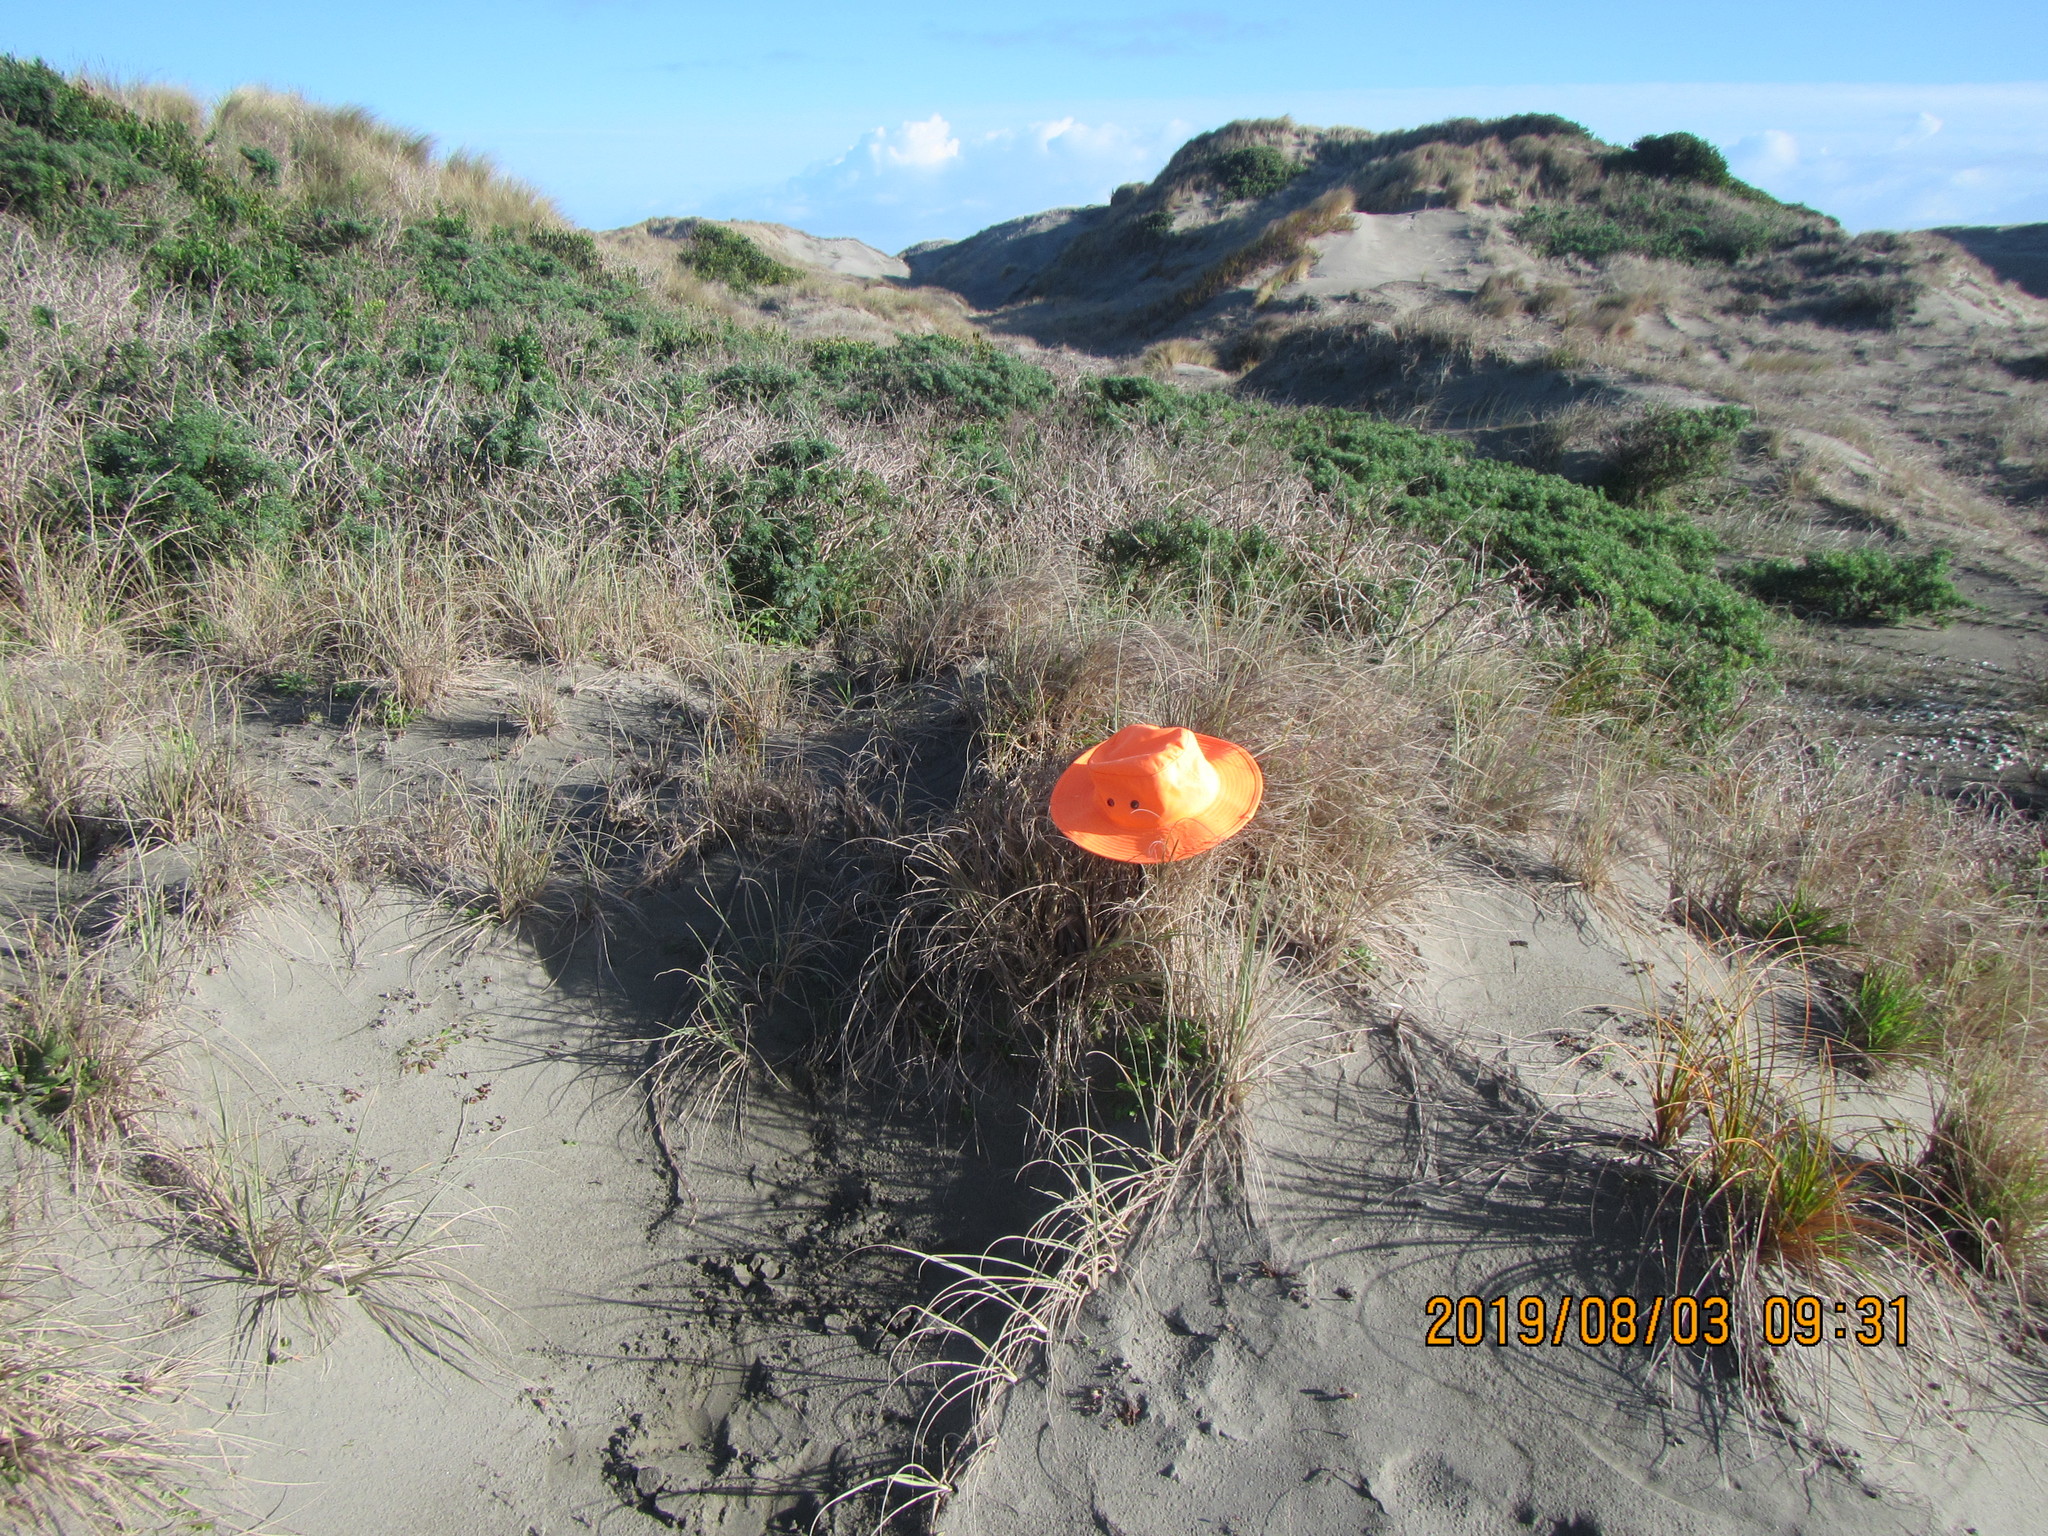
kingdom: Animalia
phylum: Arthropoda
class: Insecta
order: Lepidoptera
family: Noctuidae
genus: Agrotis
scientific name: Agrotis innominata
